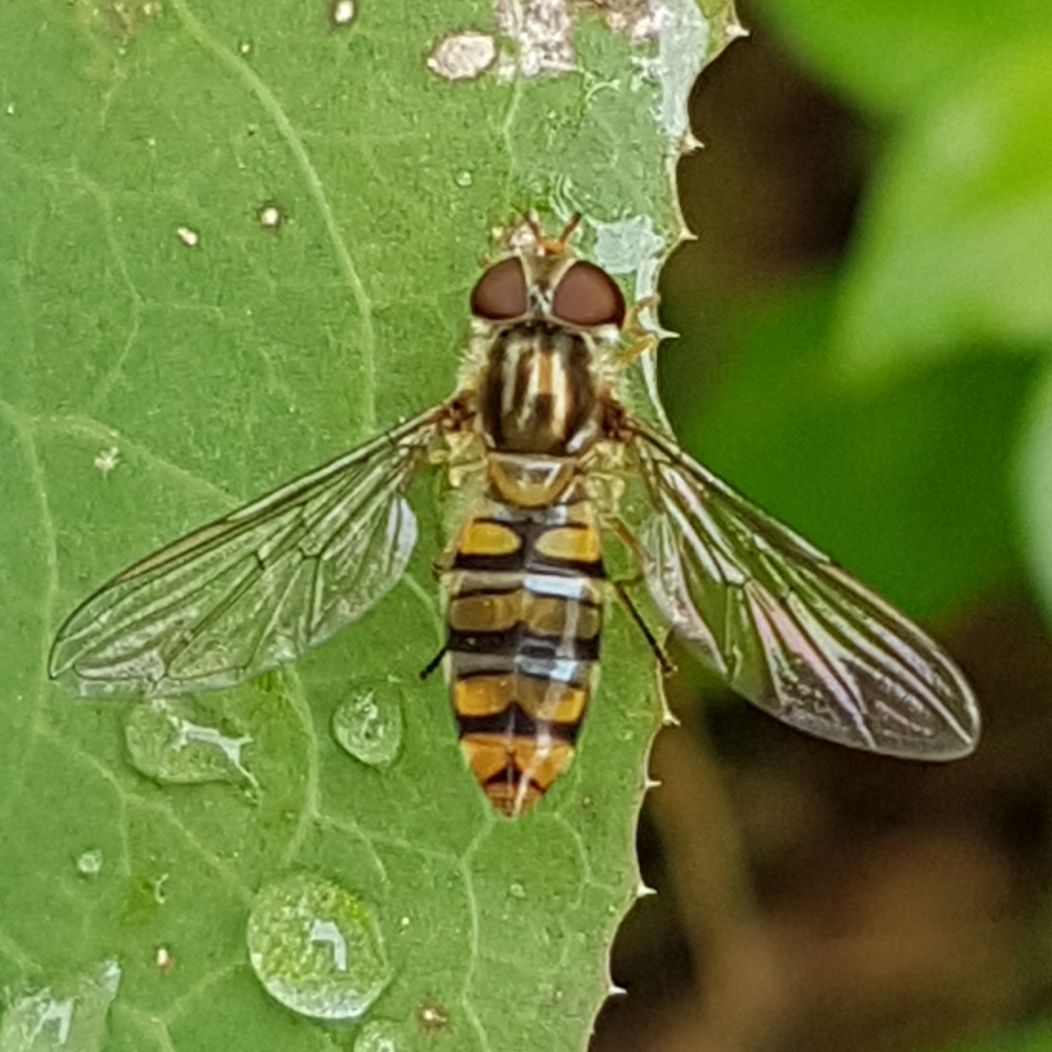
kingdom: Animalia
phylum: Arthropoda
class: Insecta
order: Diptera
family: Syrphidae
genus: Episyrphus
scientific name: Episyrphus balteatus
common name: Marmalade hoverfly
